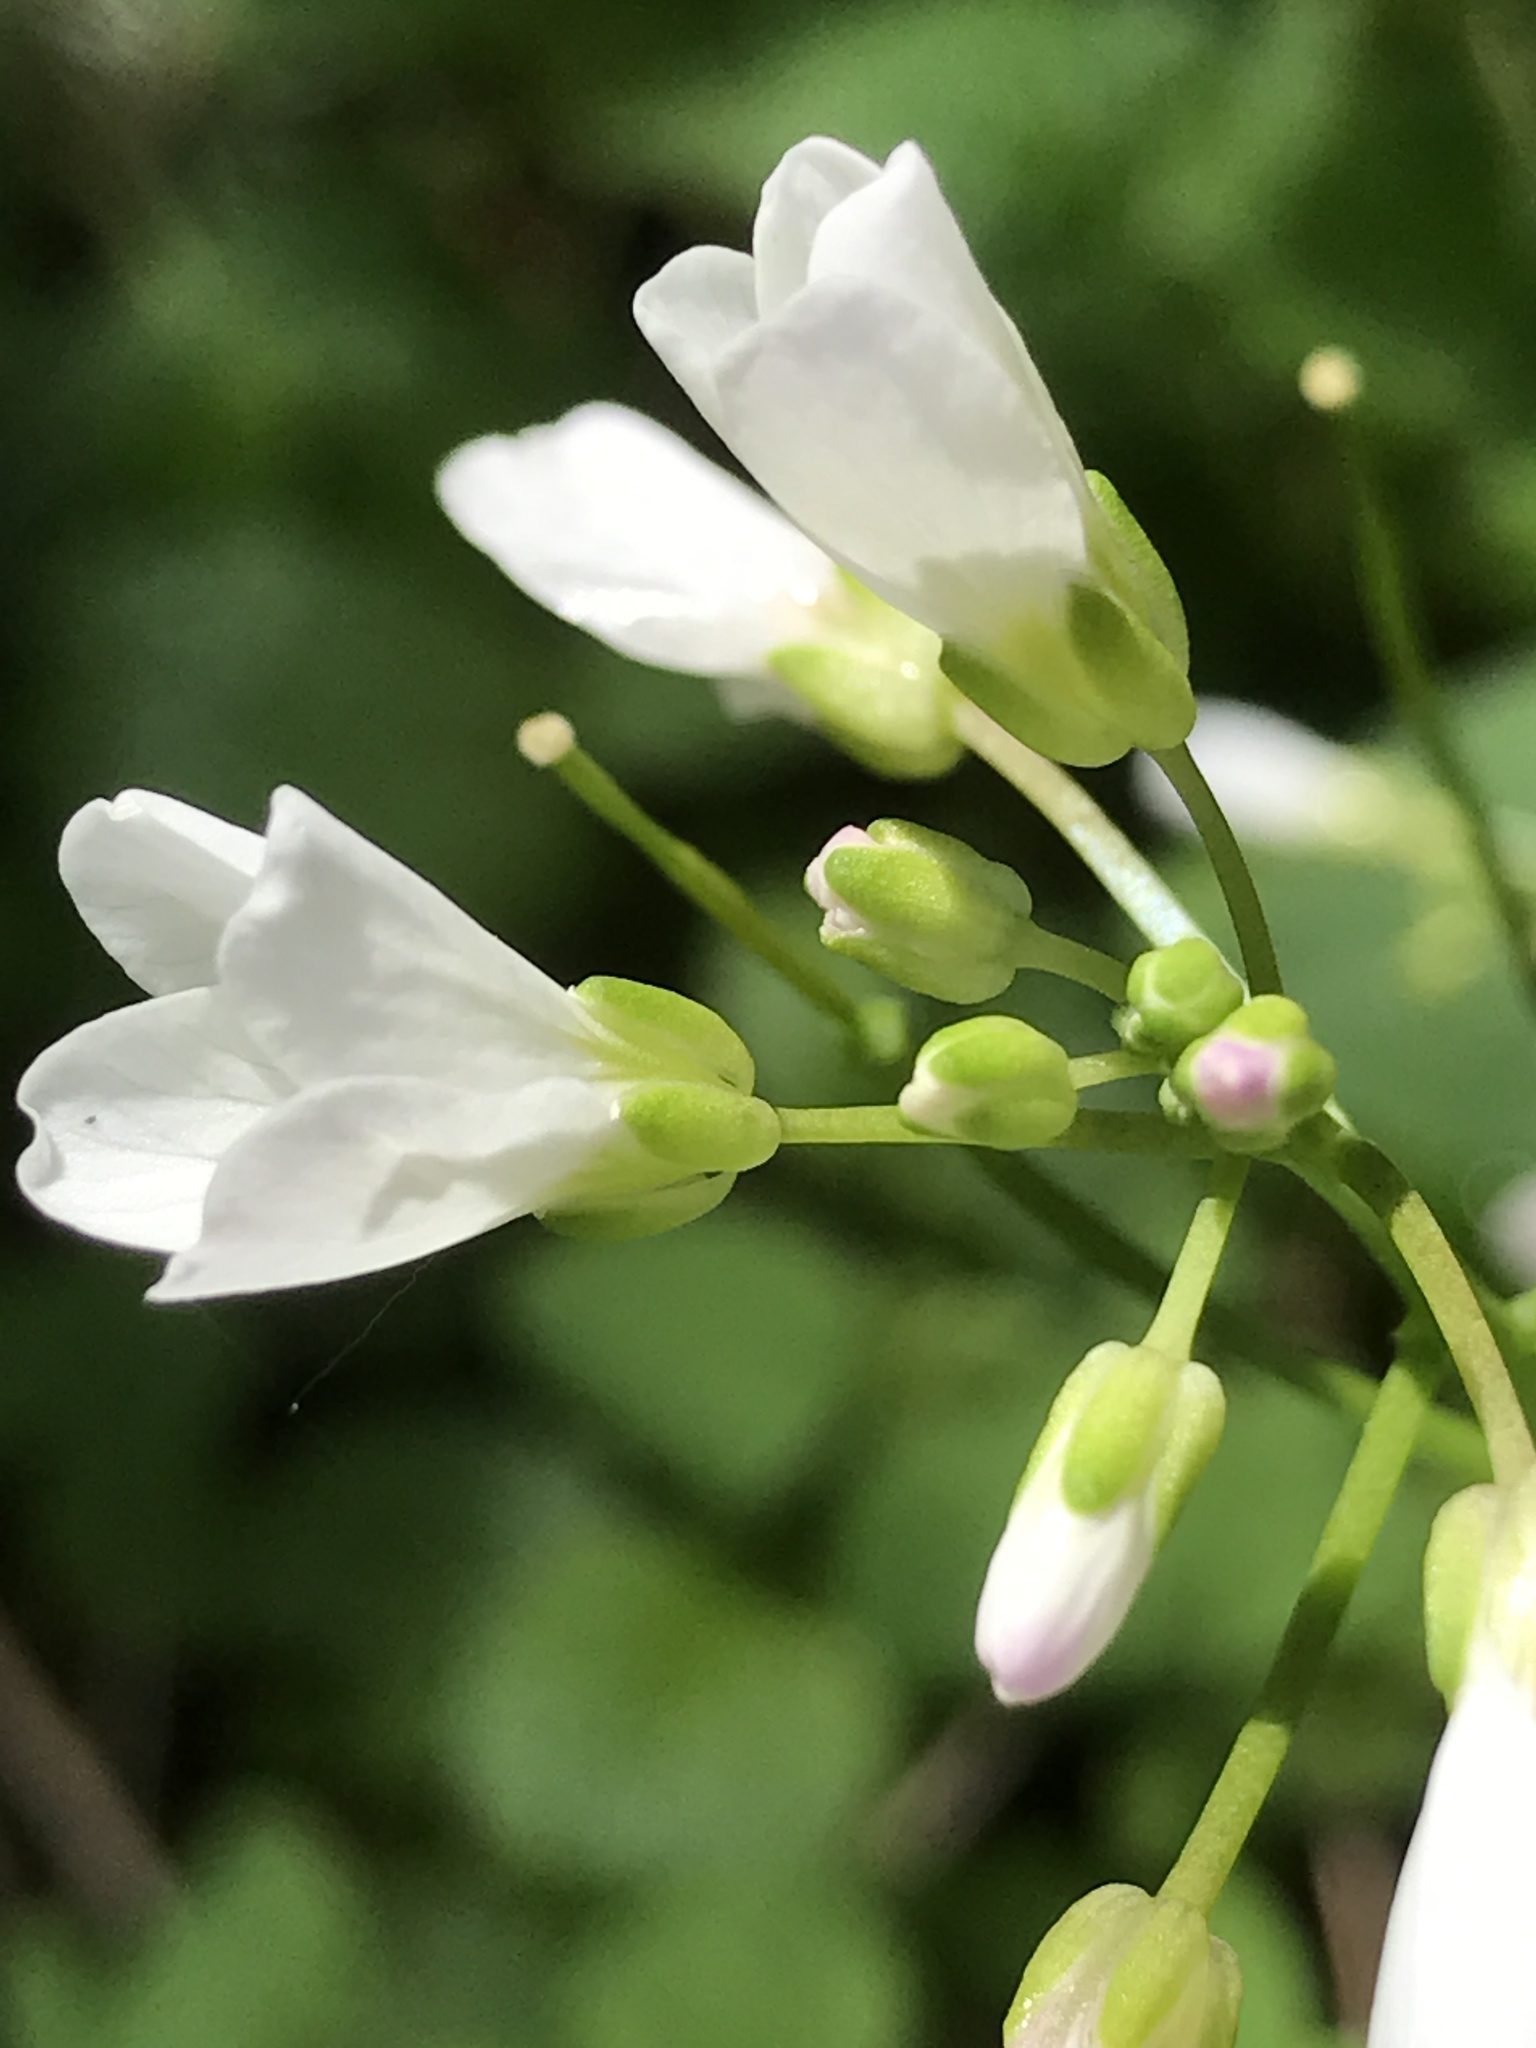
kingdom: Plantae
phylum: Tracheophyta
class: Magnoliopsida
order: Brassicales
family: Brassicaceae
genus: Cardamine
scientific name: Cardamine californica
